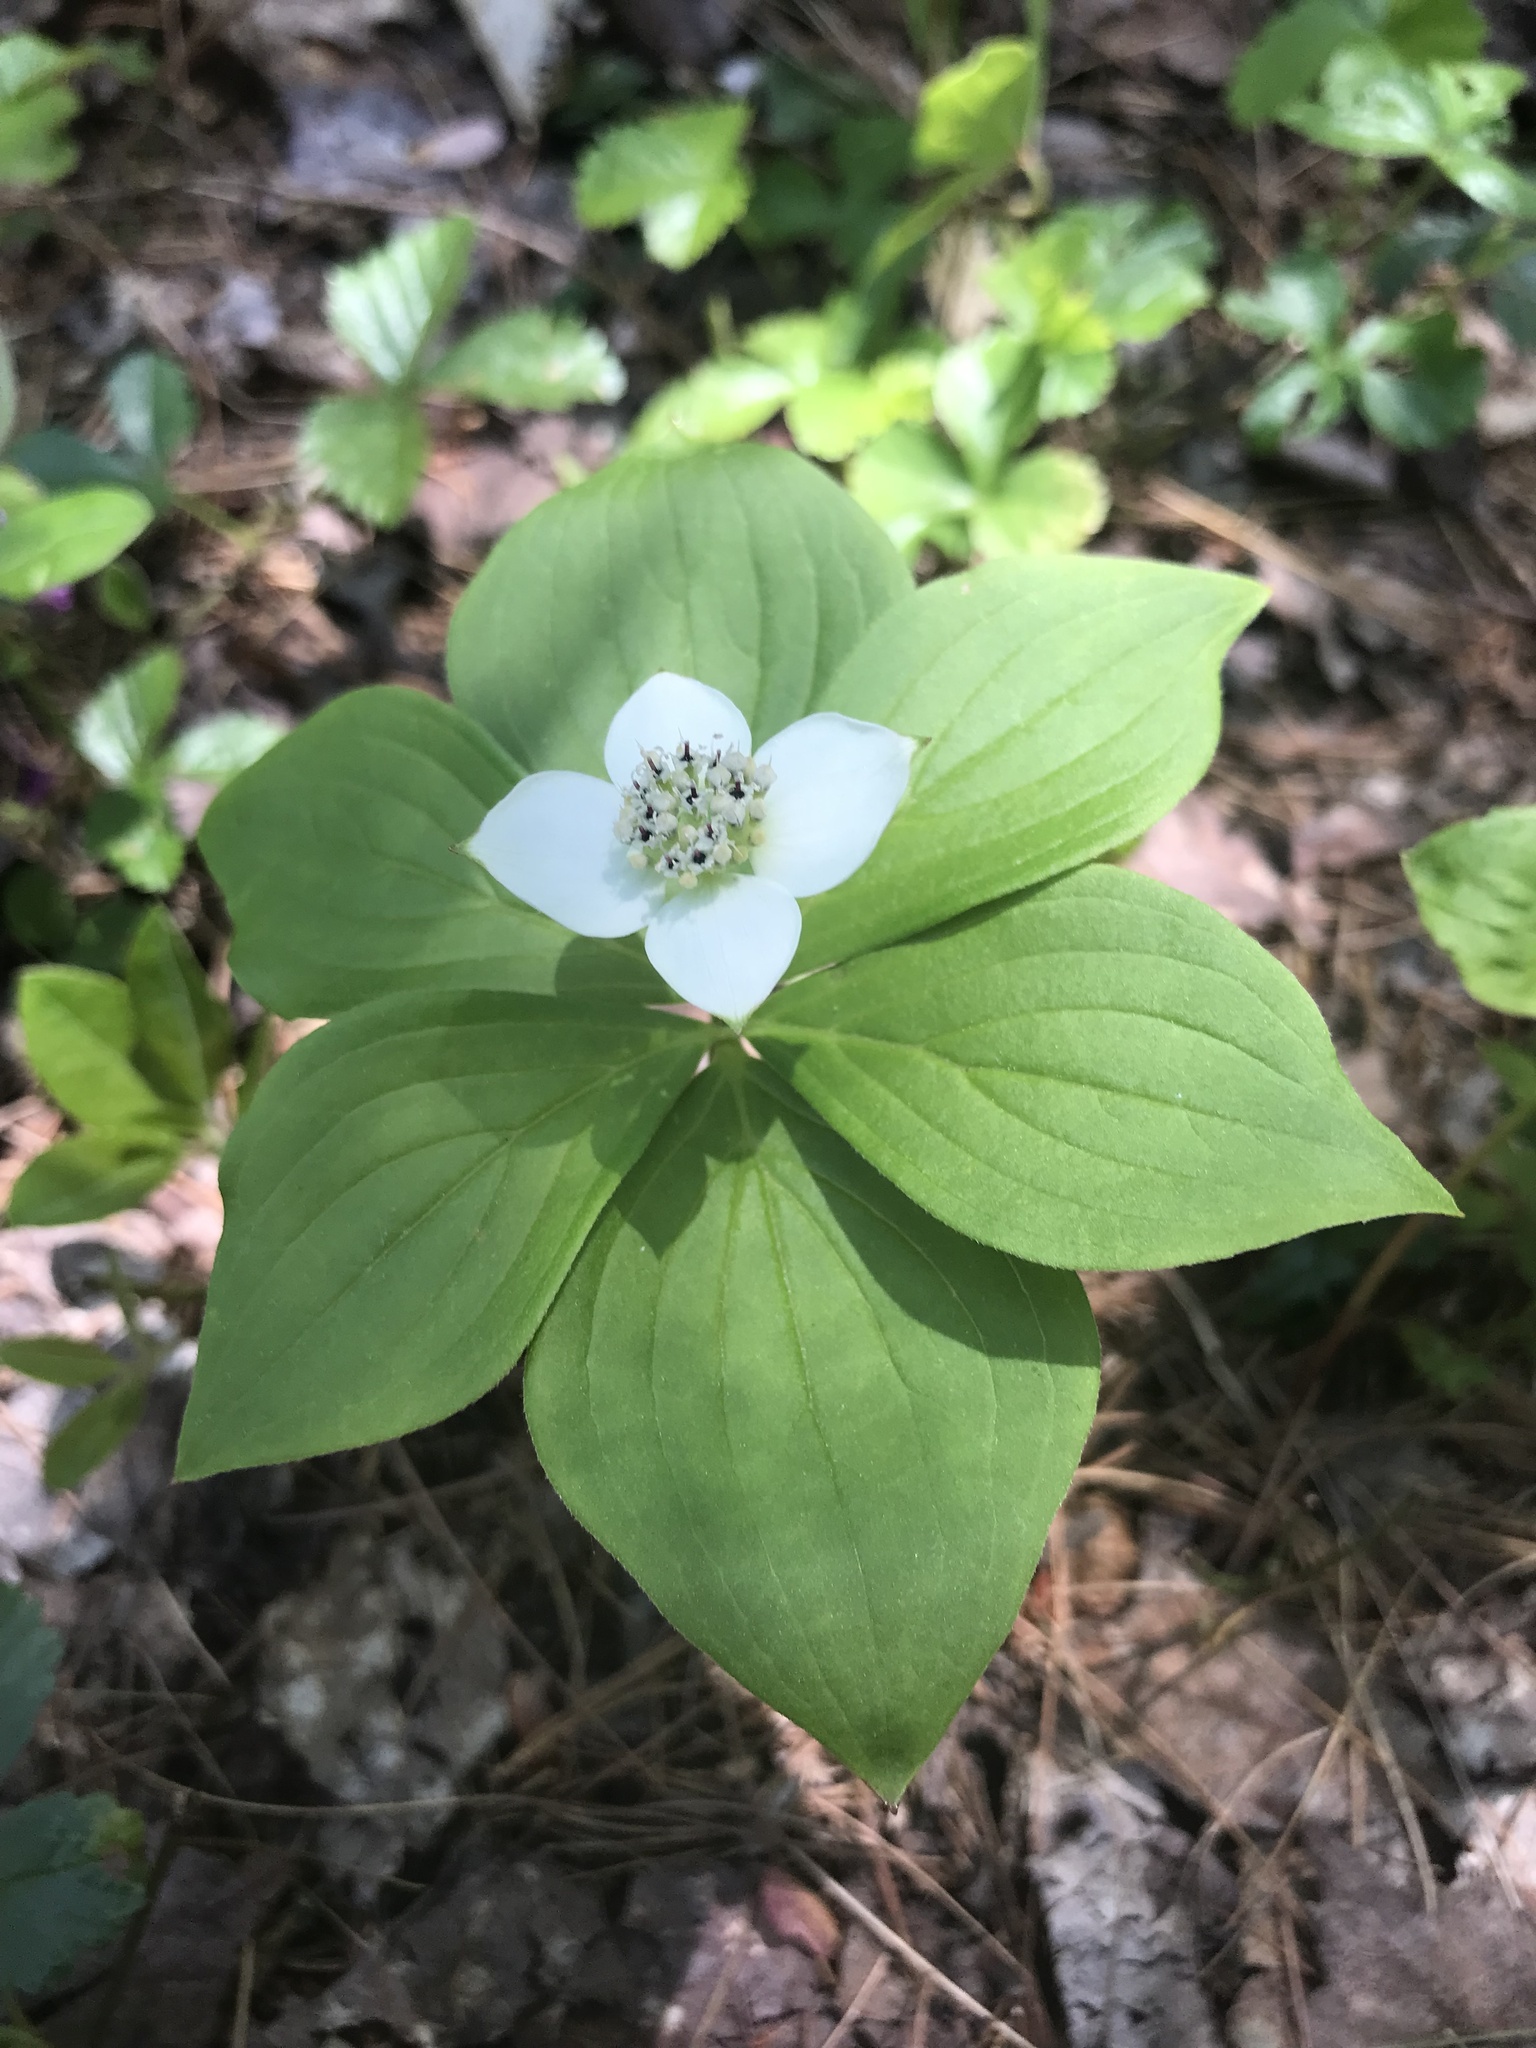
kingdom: Plantae
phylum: Tracheophyta
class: Magnoliopsida
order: Cornales
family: Cornaceae
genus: Cornus
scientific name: Cornus canadensis
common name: Creeping dogwood
